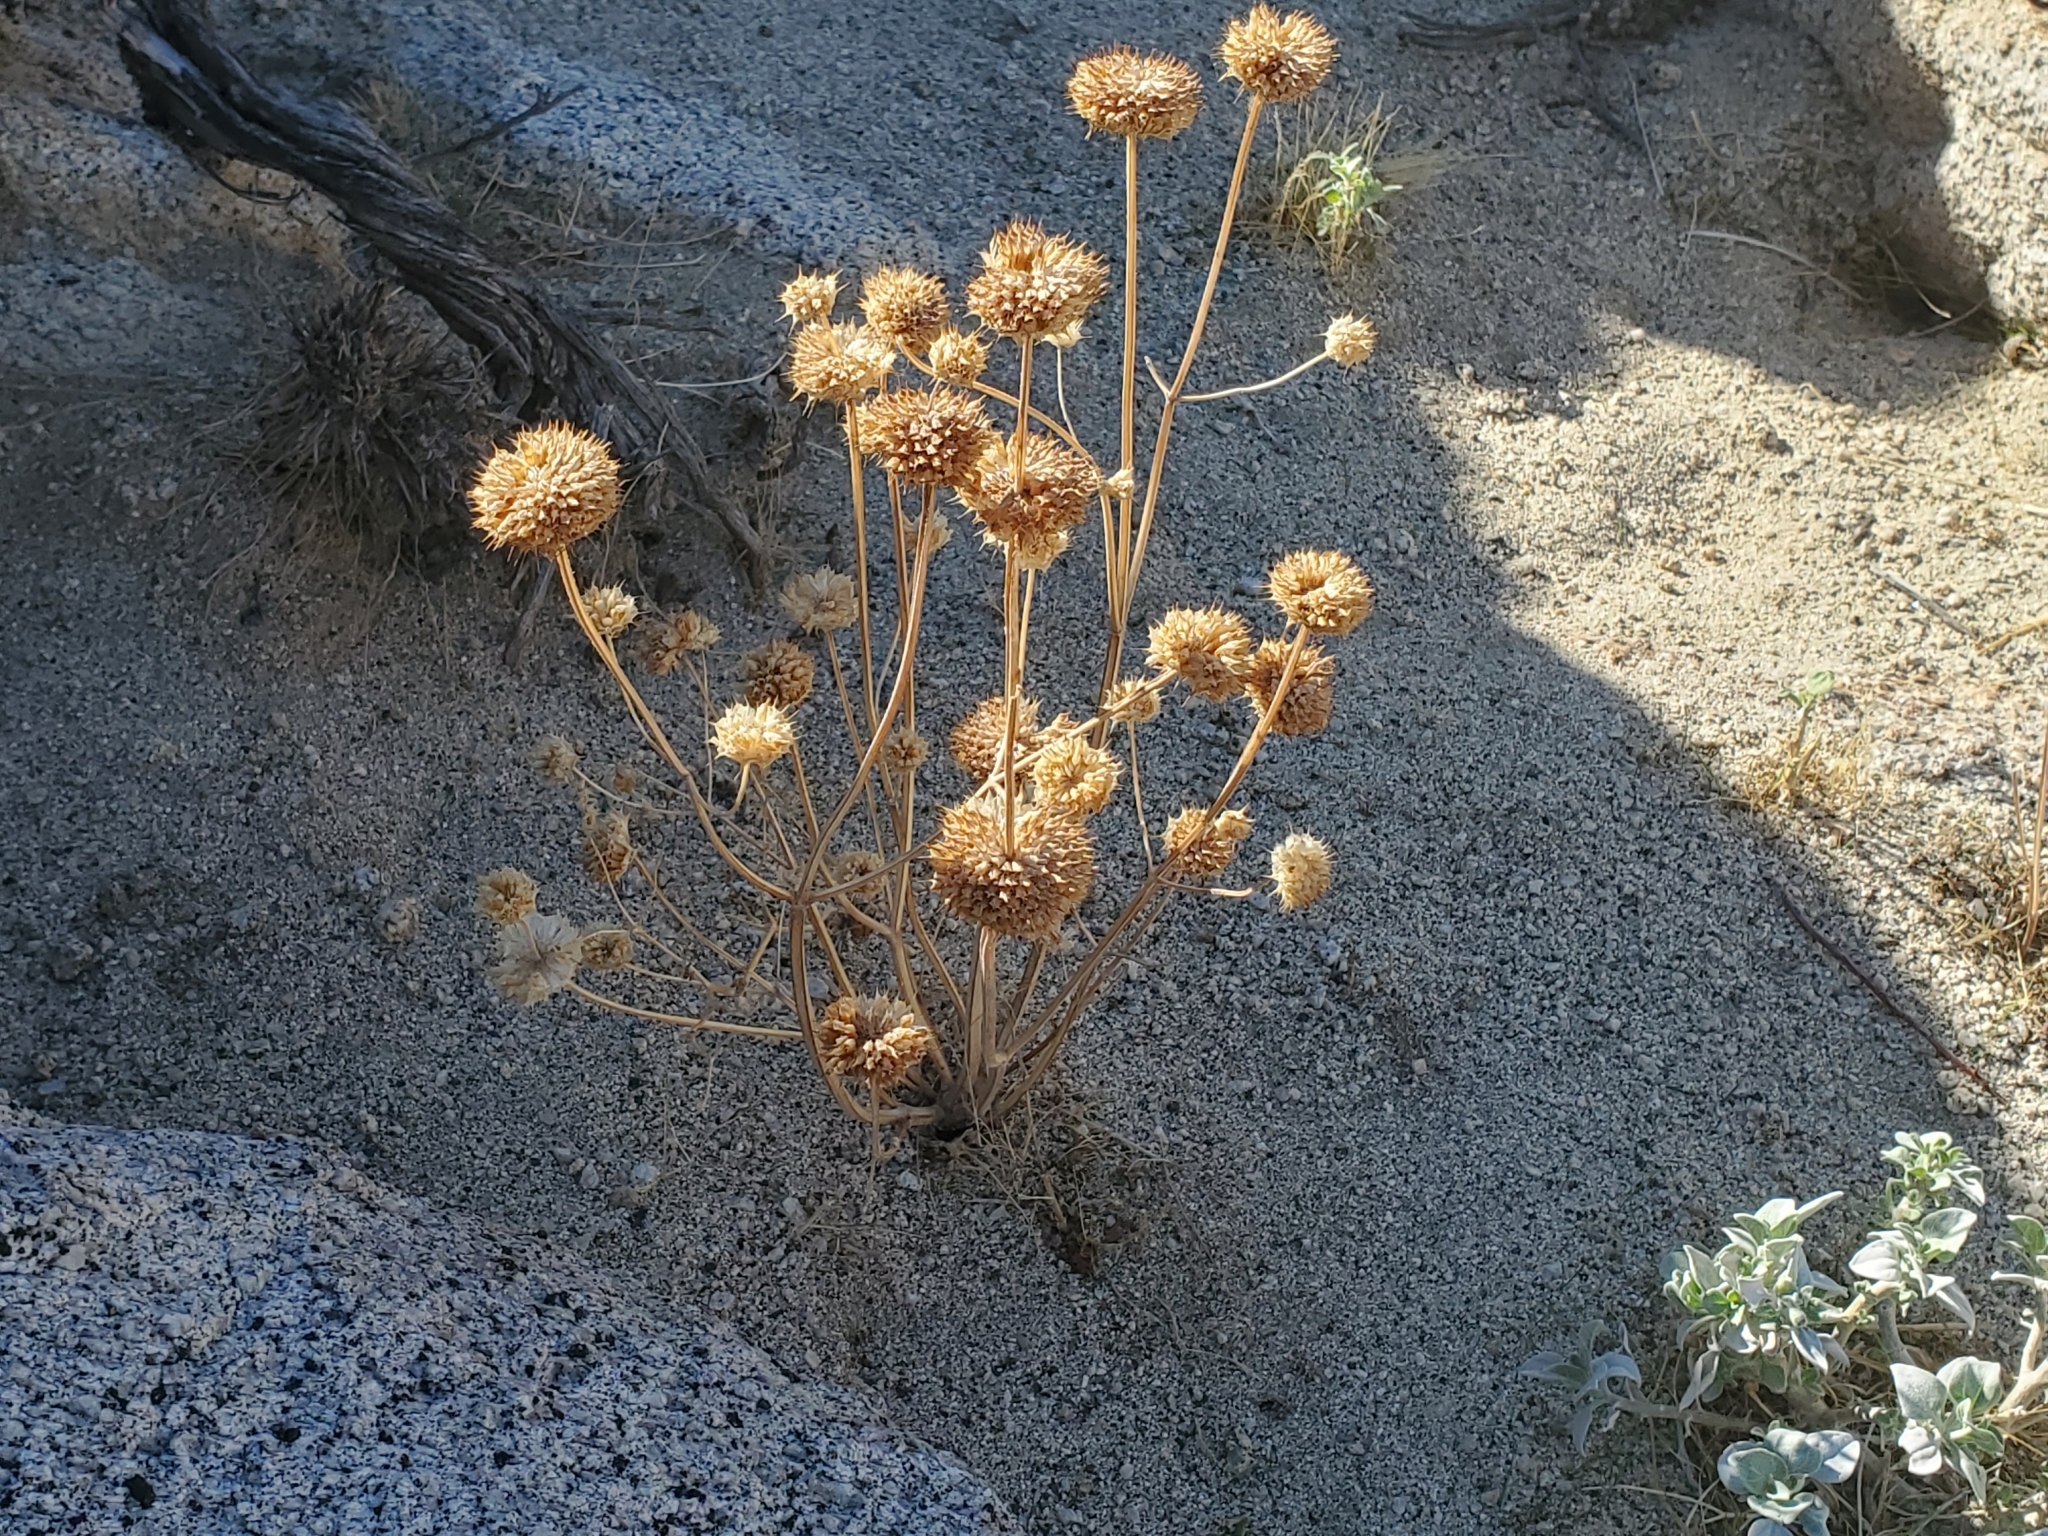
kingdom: Plantae
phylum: Tracheophyta
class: Magnoliopsida
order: Lamiales
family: Lamiaceae
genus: Salvia
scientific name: Salvia columbariae
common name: Chia
